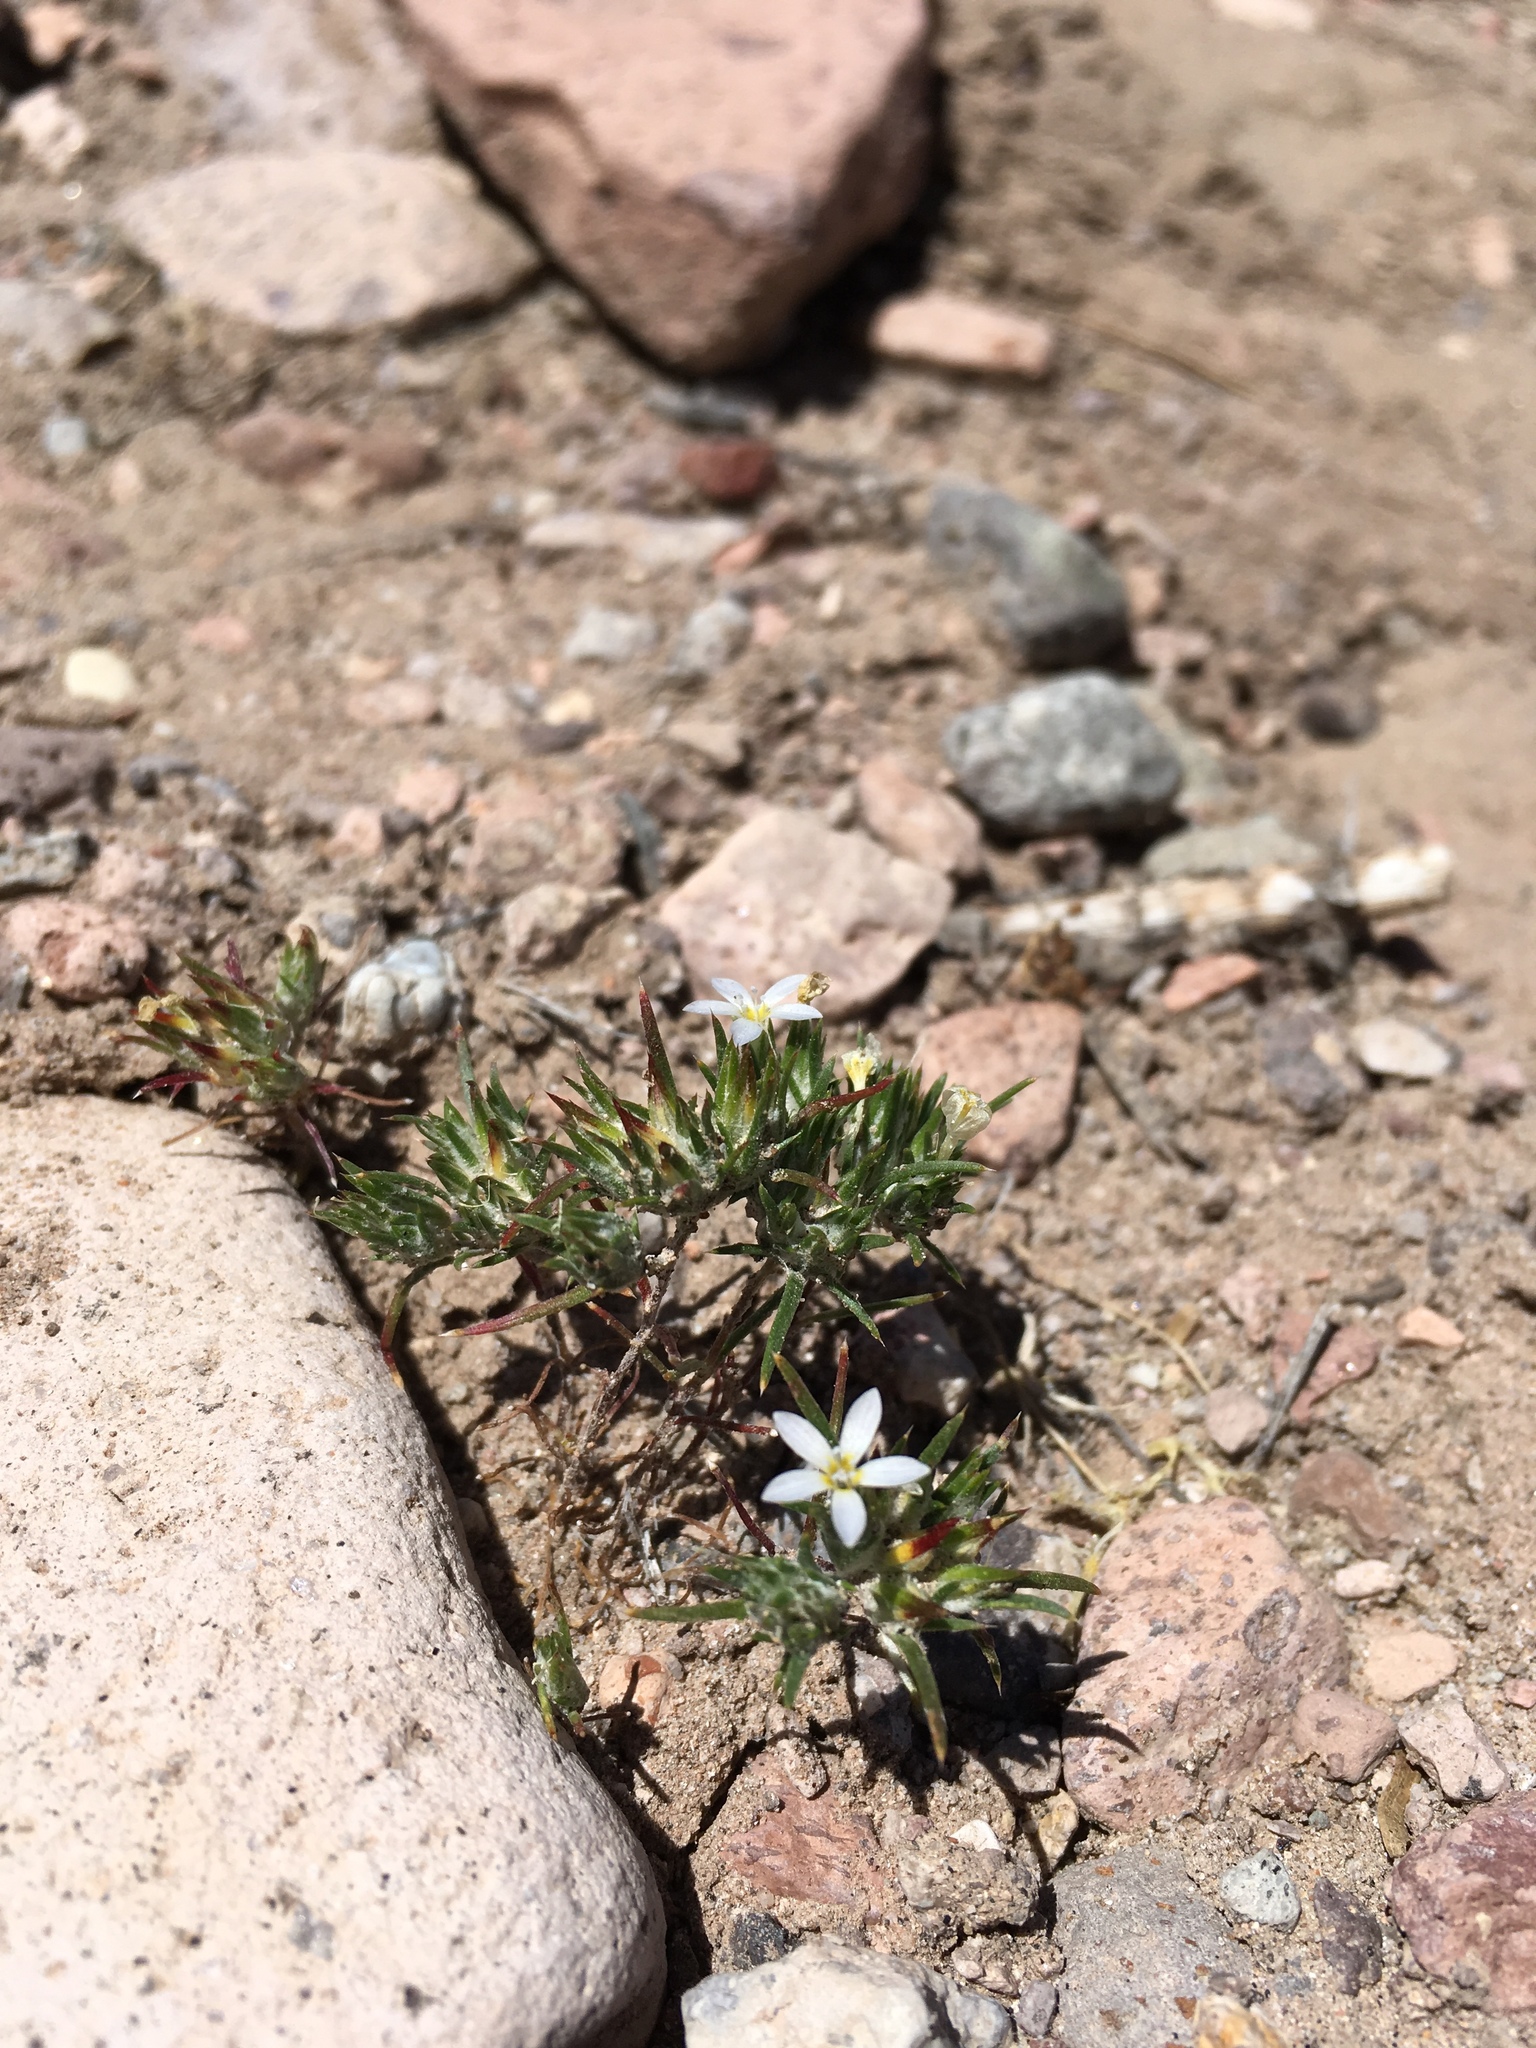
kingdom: Plantae
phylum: Tracheophyta
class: Magnoliopsida
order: Ericales
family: Polemoniaceae
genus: Eriastrum
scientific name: Eriastrum diffusum
